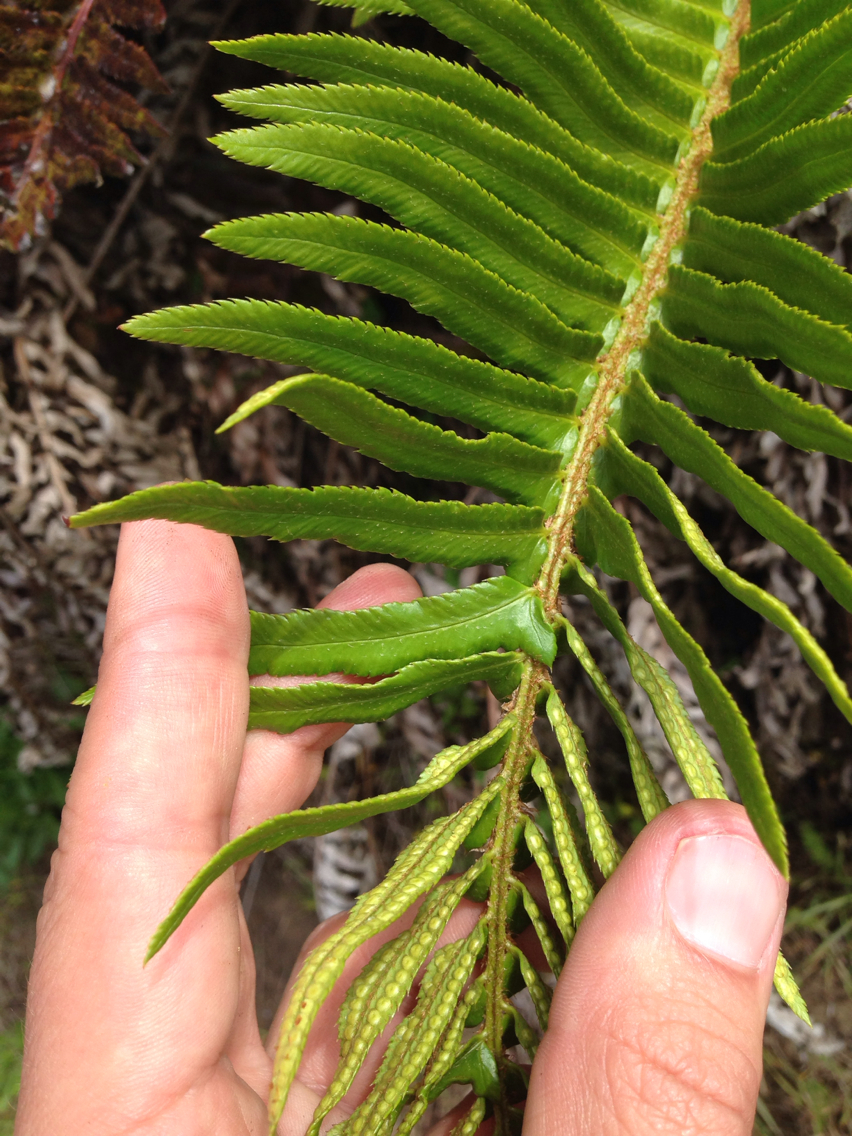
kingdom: Plantae
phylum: Tracheophyta
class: Polypodiopsida
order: Polypodiales
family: Dryopteridaceae
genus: Polystichum
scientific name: Polystichum munitum
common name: Western sword-fern
